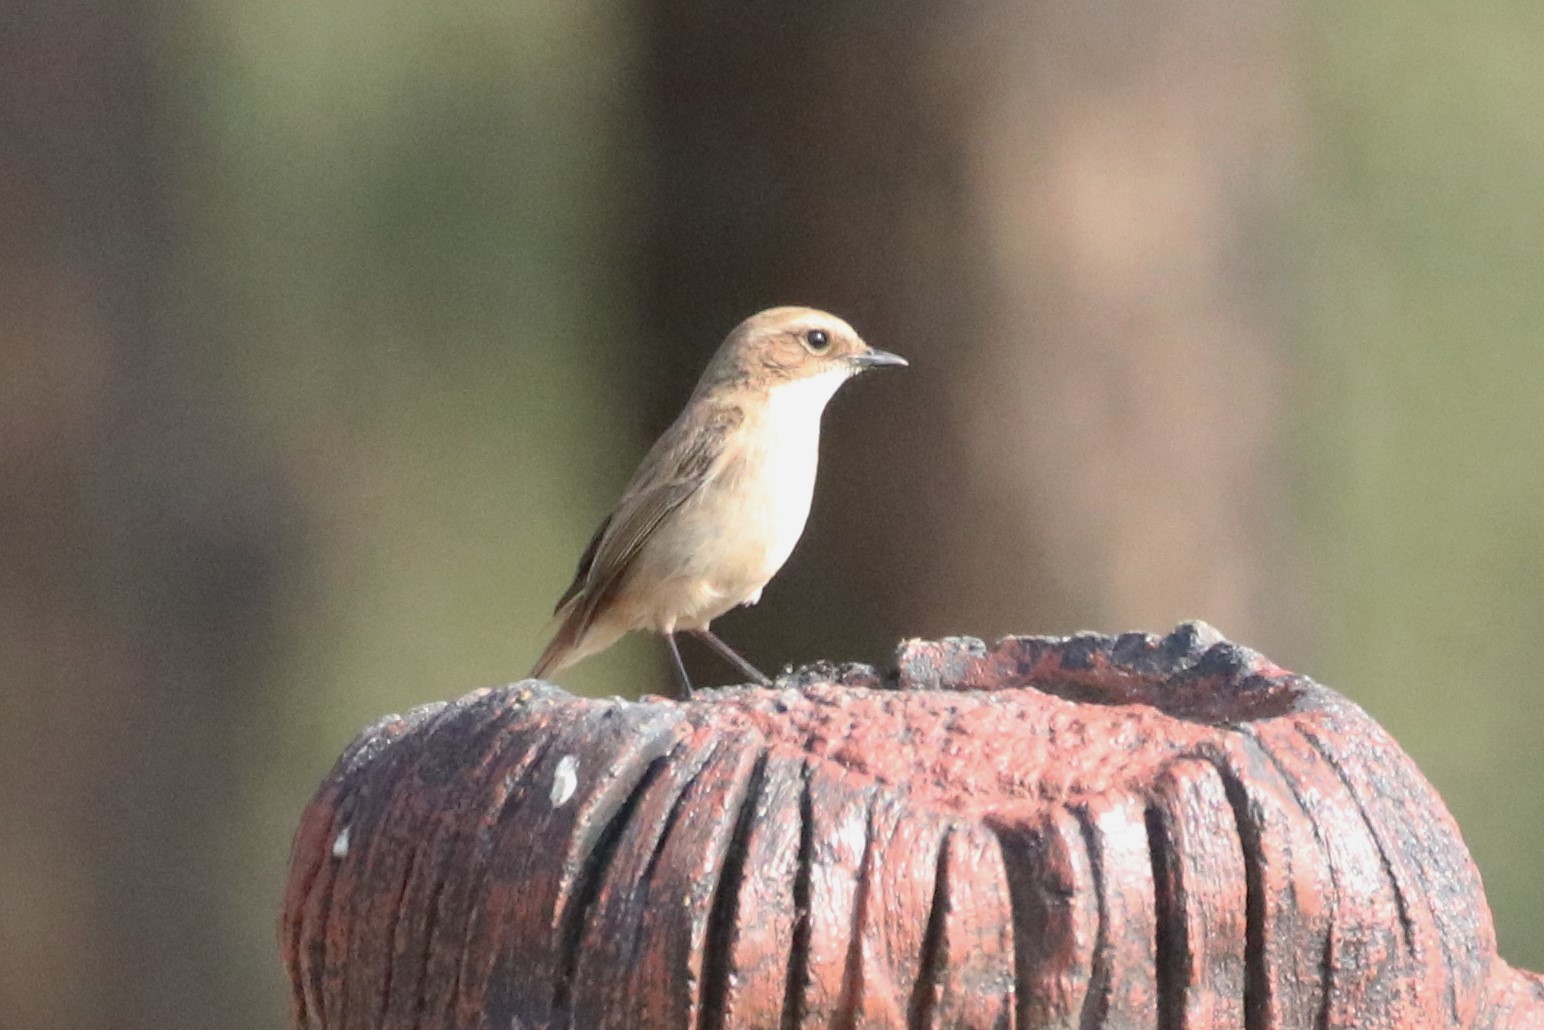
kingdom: Animalia
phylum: Chordata
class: Aves
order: Passeriformes
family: Muscicapidae
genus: Saxicola
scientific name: Saxicola ferreus
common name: Grey bush chat
